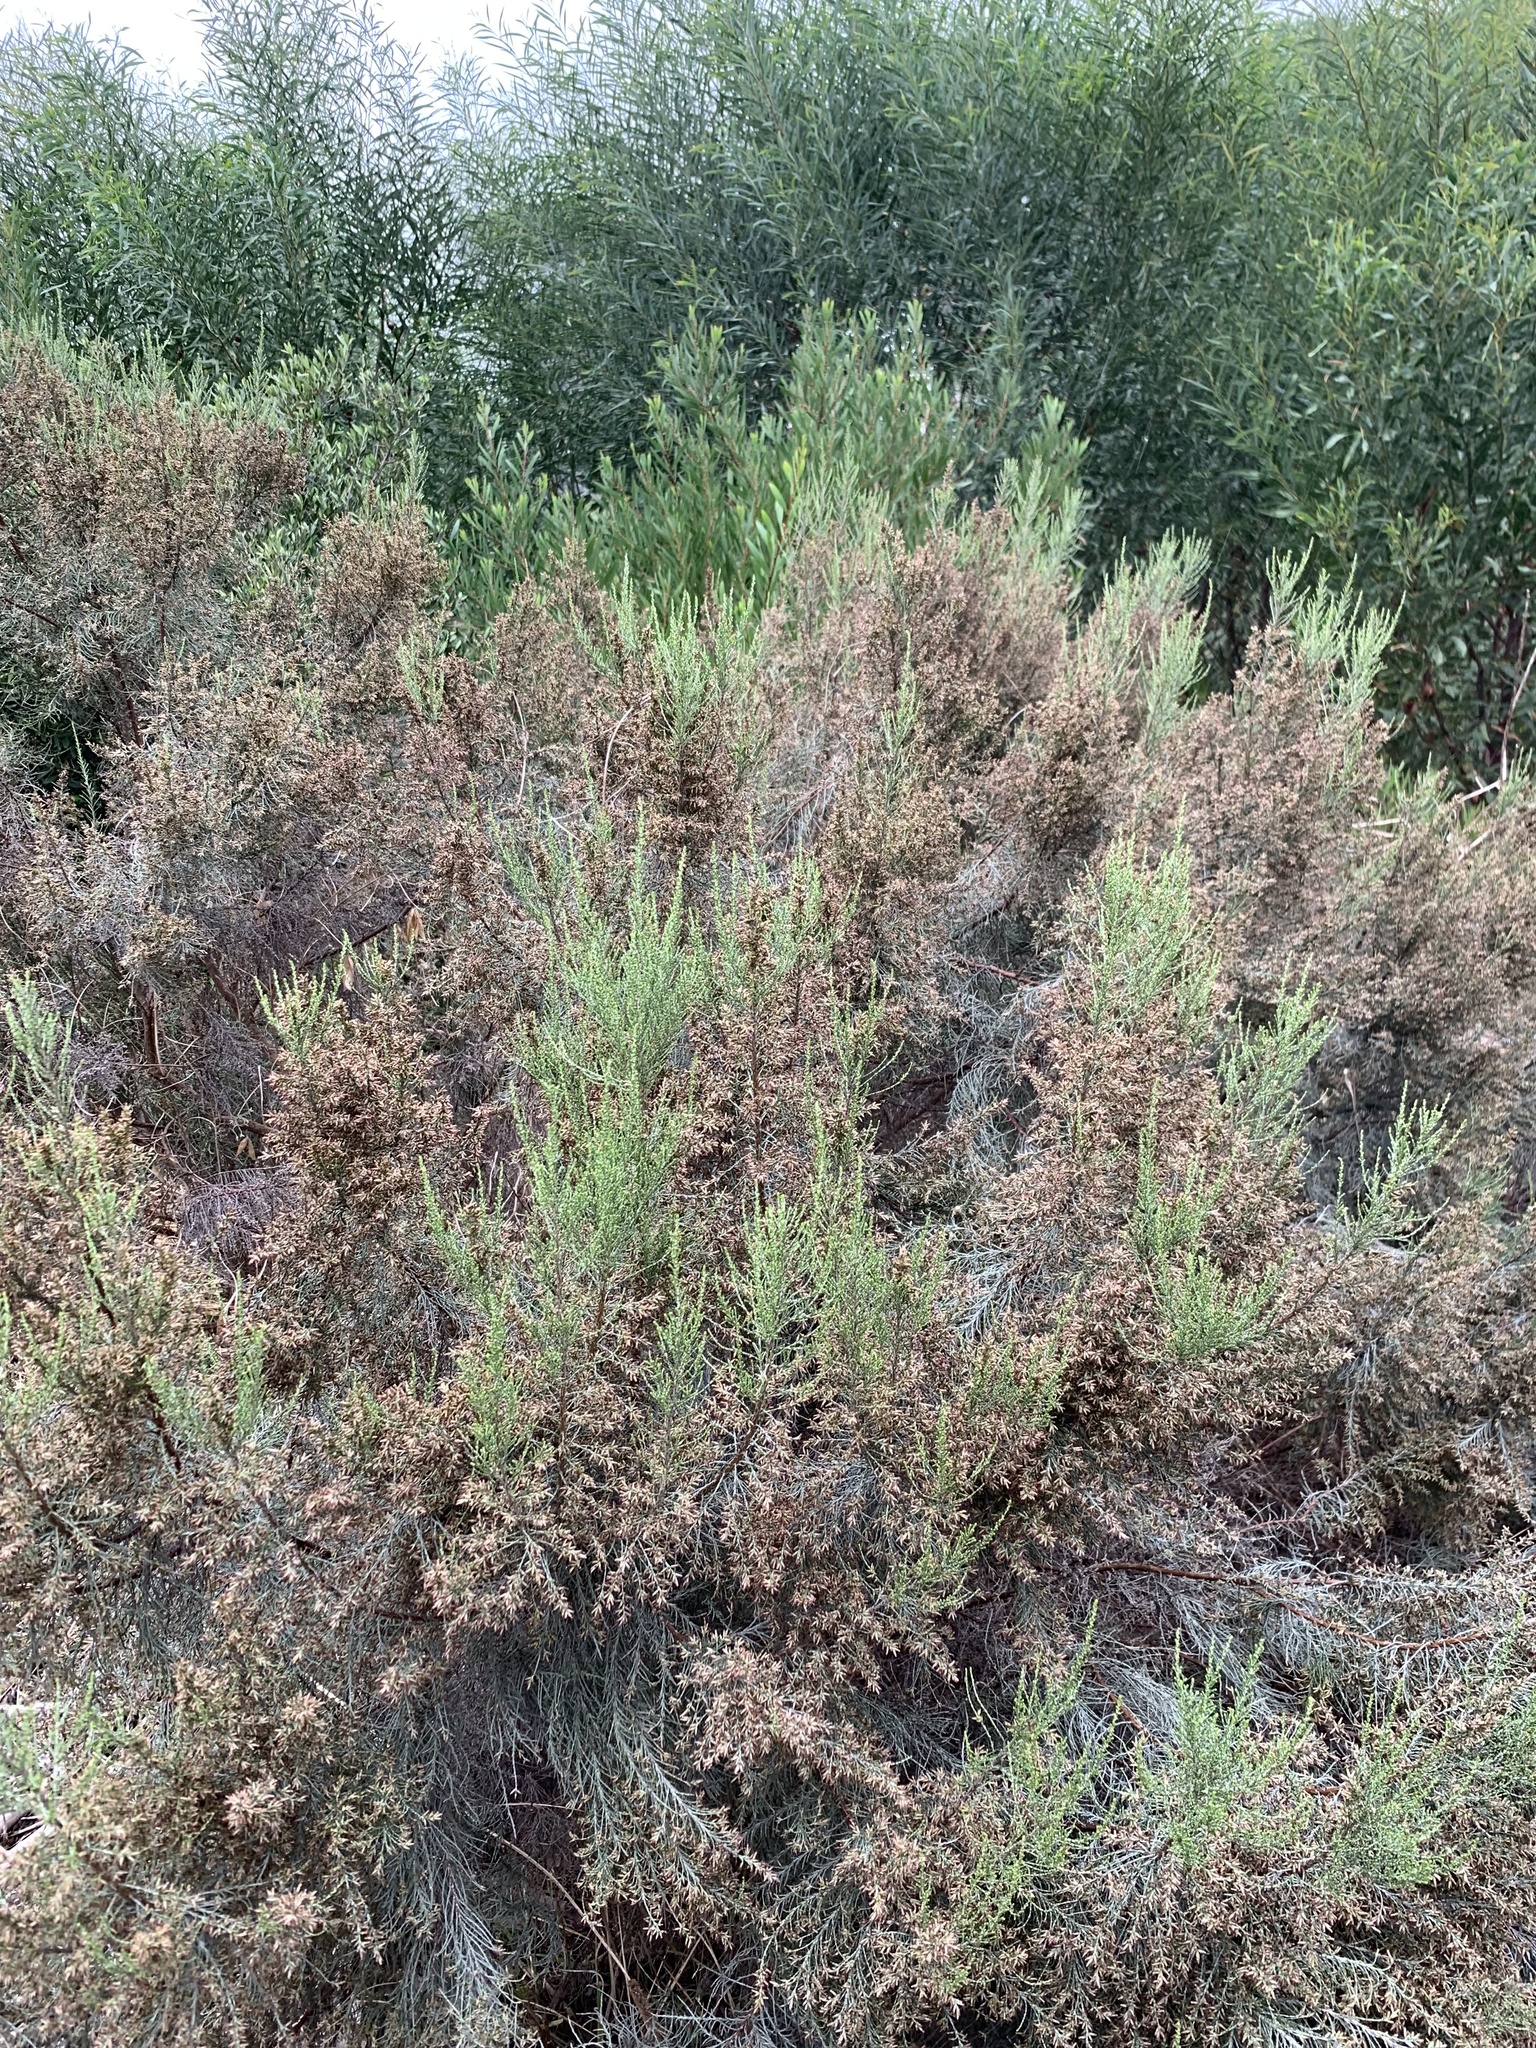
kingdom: Plantae
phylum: Tracheophyta
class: Magnoliopsida
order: Asterales
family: Asteraceae
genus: Dicerothamnus
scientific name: Dicerothamnus rhinocerotis
